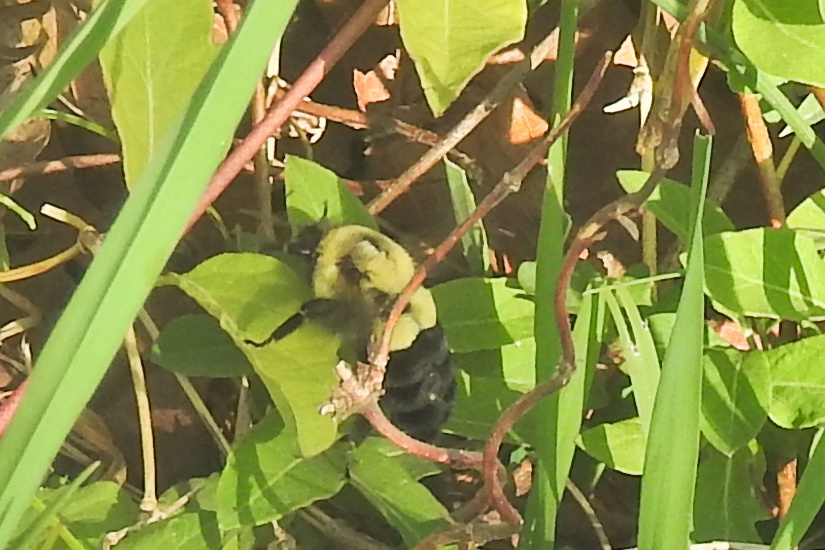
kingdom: Animalia
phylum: Arthropoda
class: Insecta
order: Hymenoptera
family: Apidae
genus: Bombus
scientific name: Bombus impatiens
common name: Common eastern bumble bee
